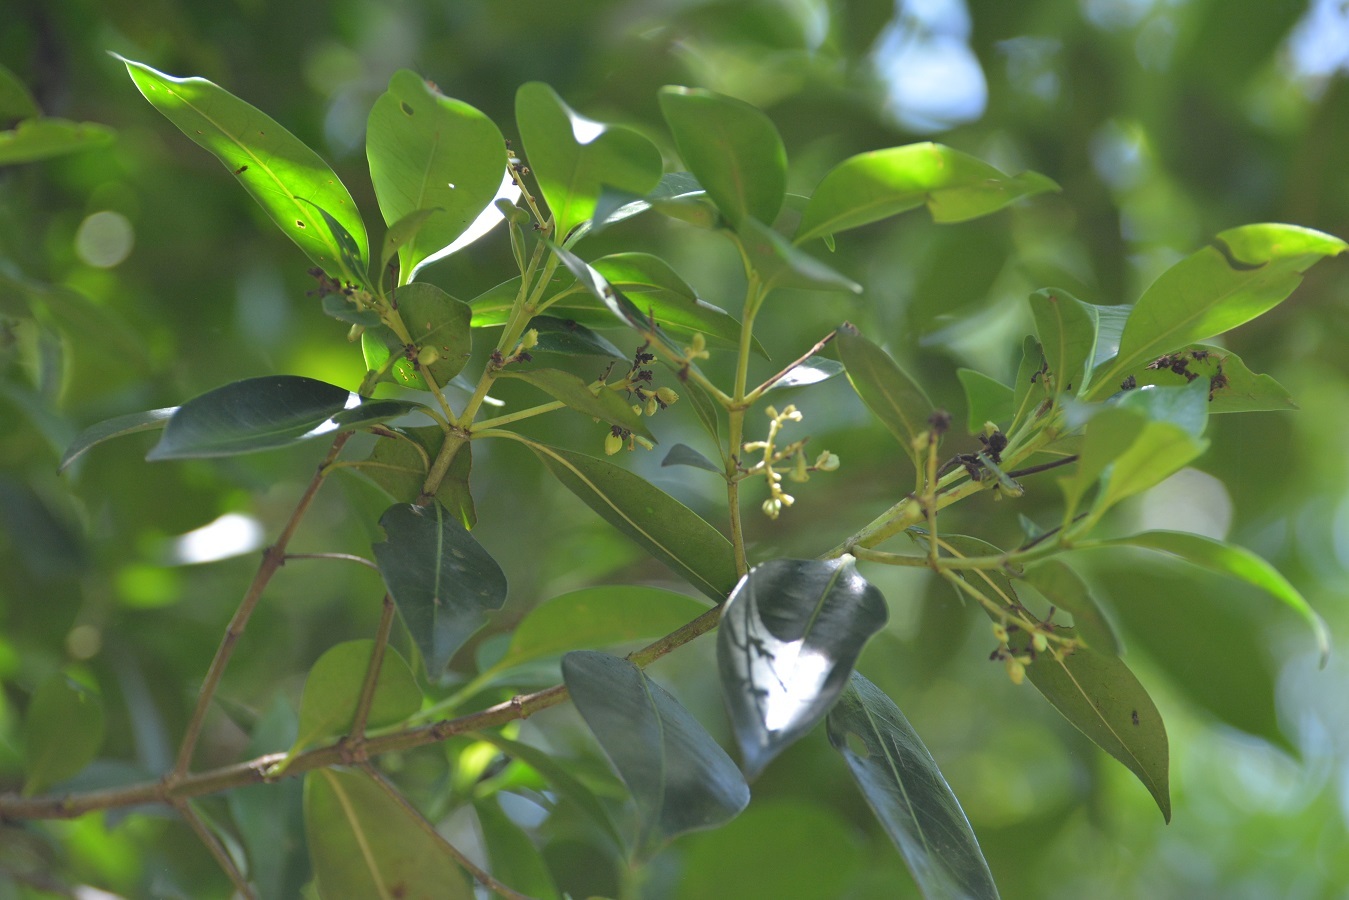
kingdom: Plantae
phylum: Tracheophyta
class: Magnoliopsida
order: Gentianales
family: Rubiaceae
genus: Chiococca
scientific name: Chiococca phaenostemon
